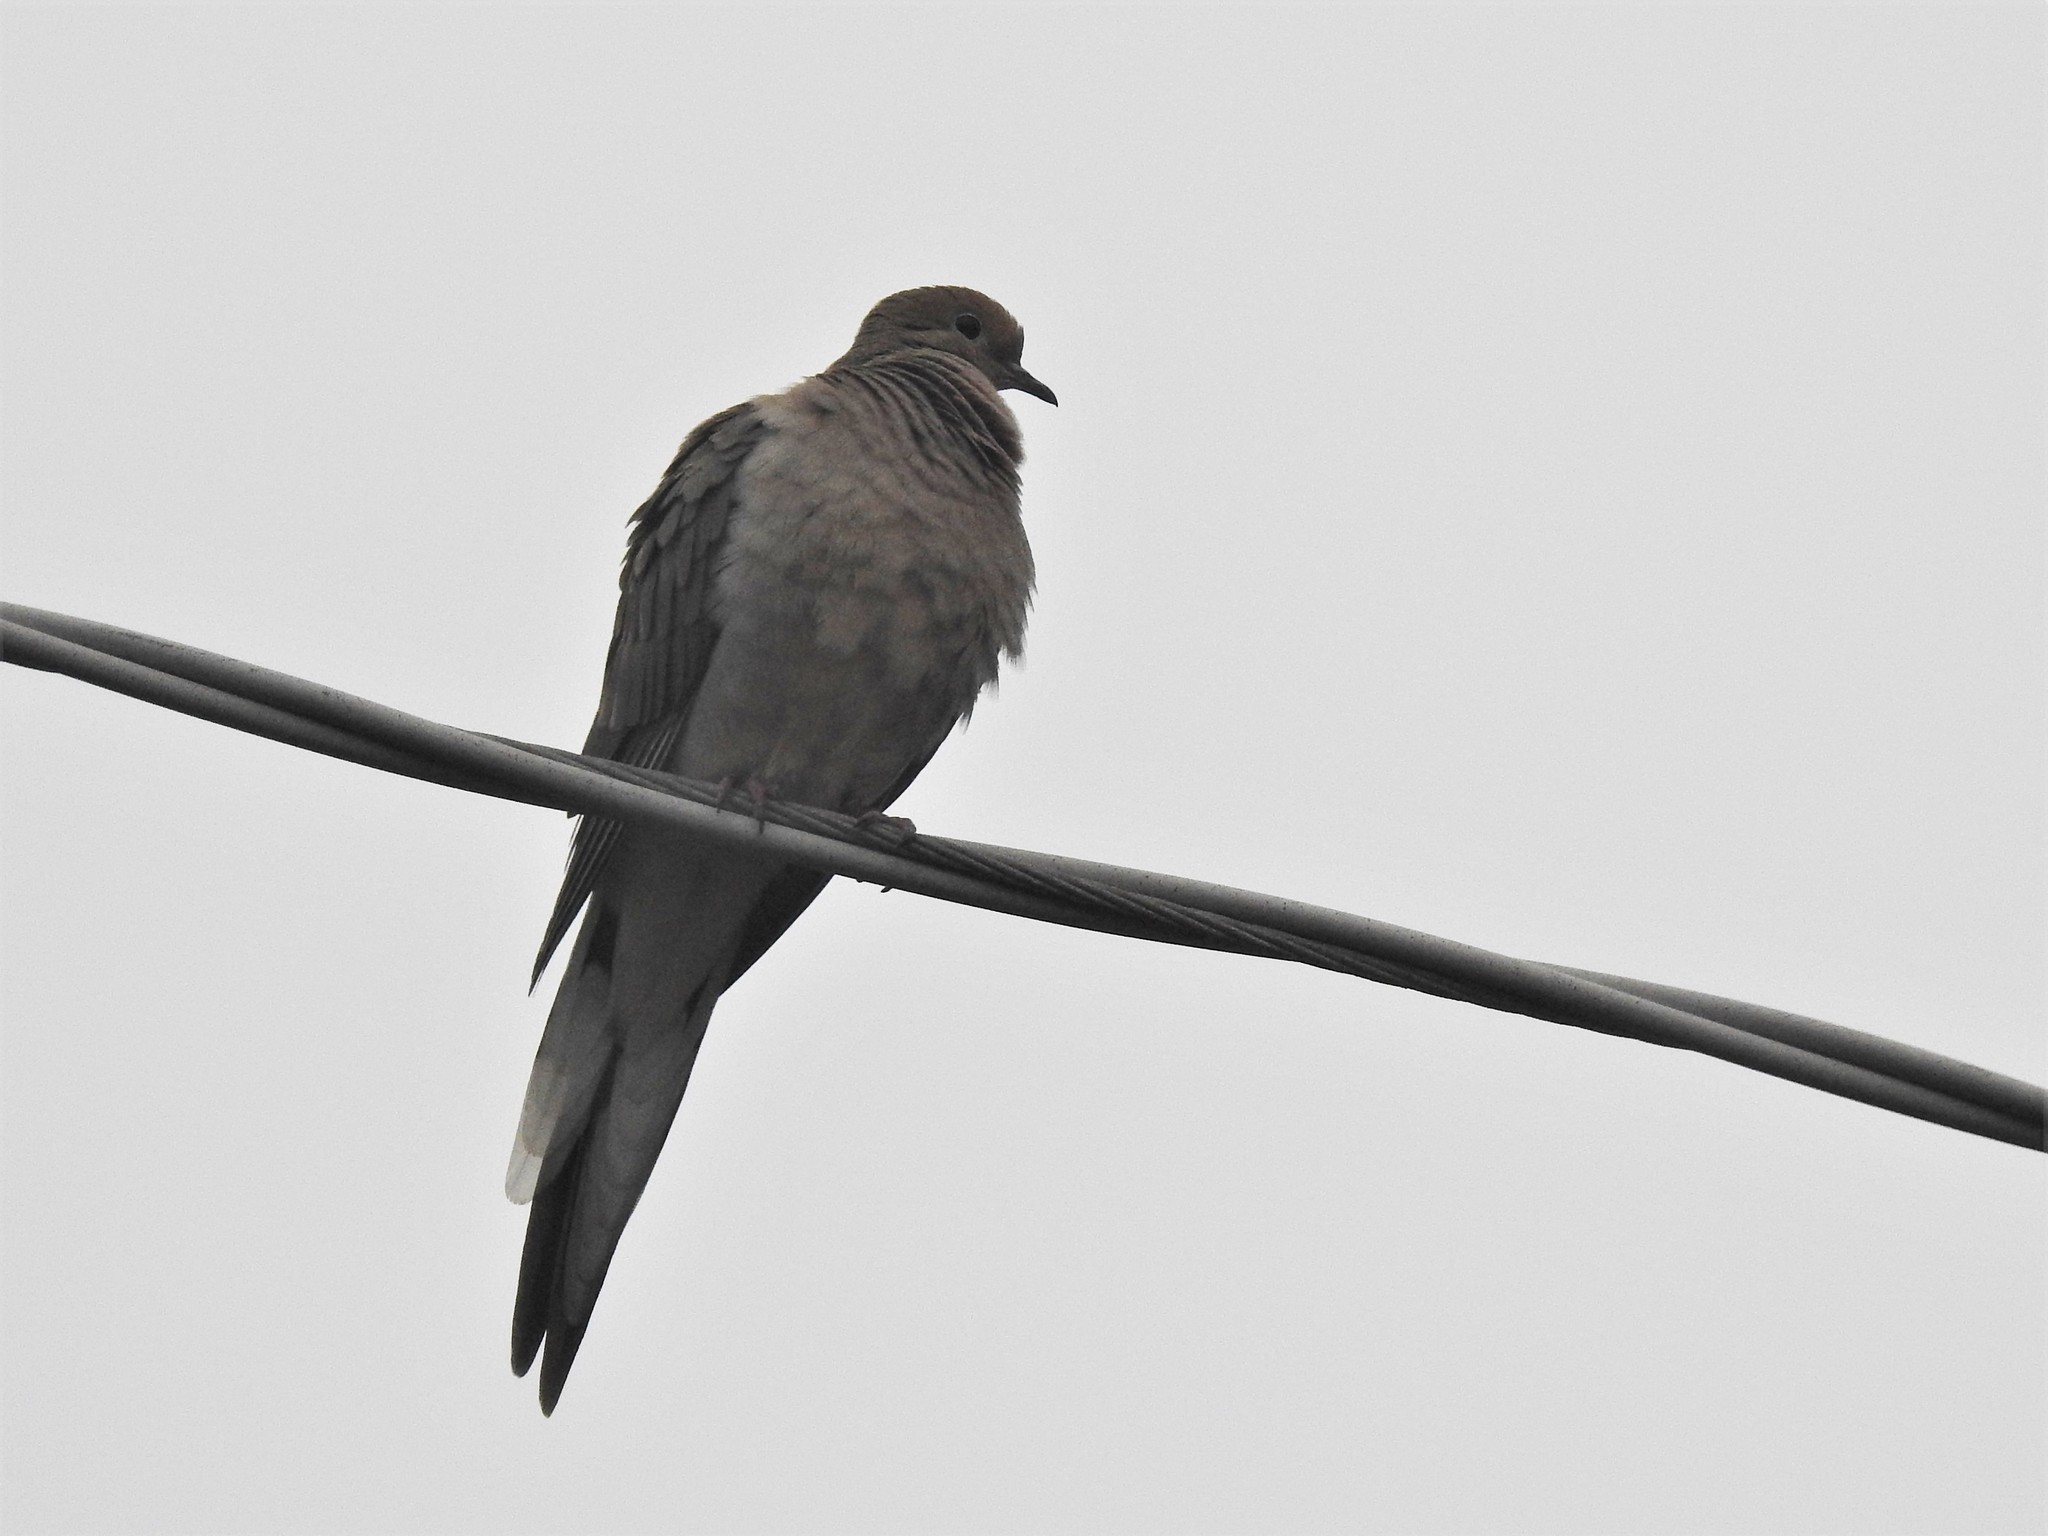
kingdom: Animalia
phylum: Chordata
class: Aves
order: Columbiformes
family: Columbidae
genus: Zenaida
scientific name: Zenaida macroura
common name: Mourning dove
